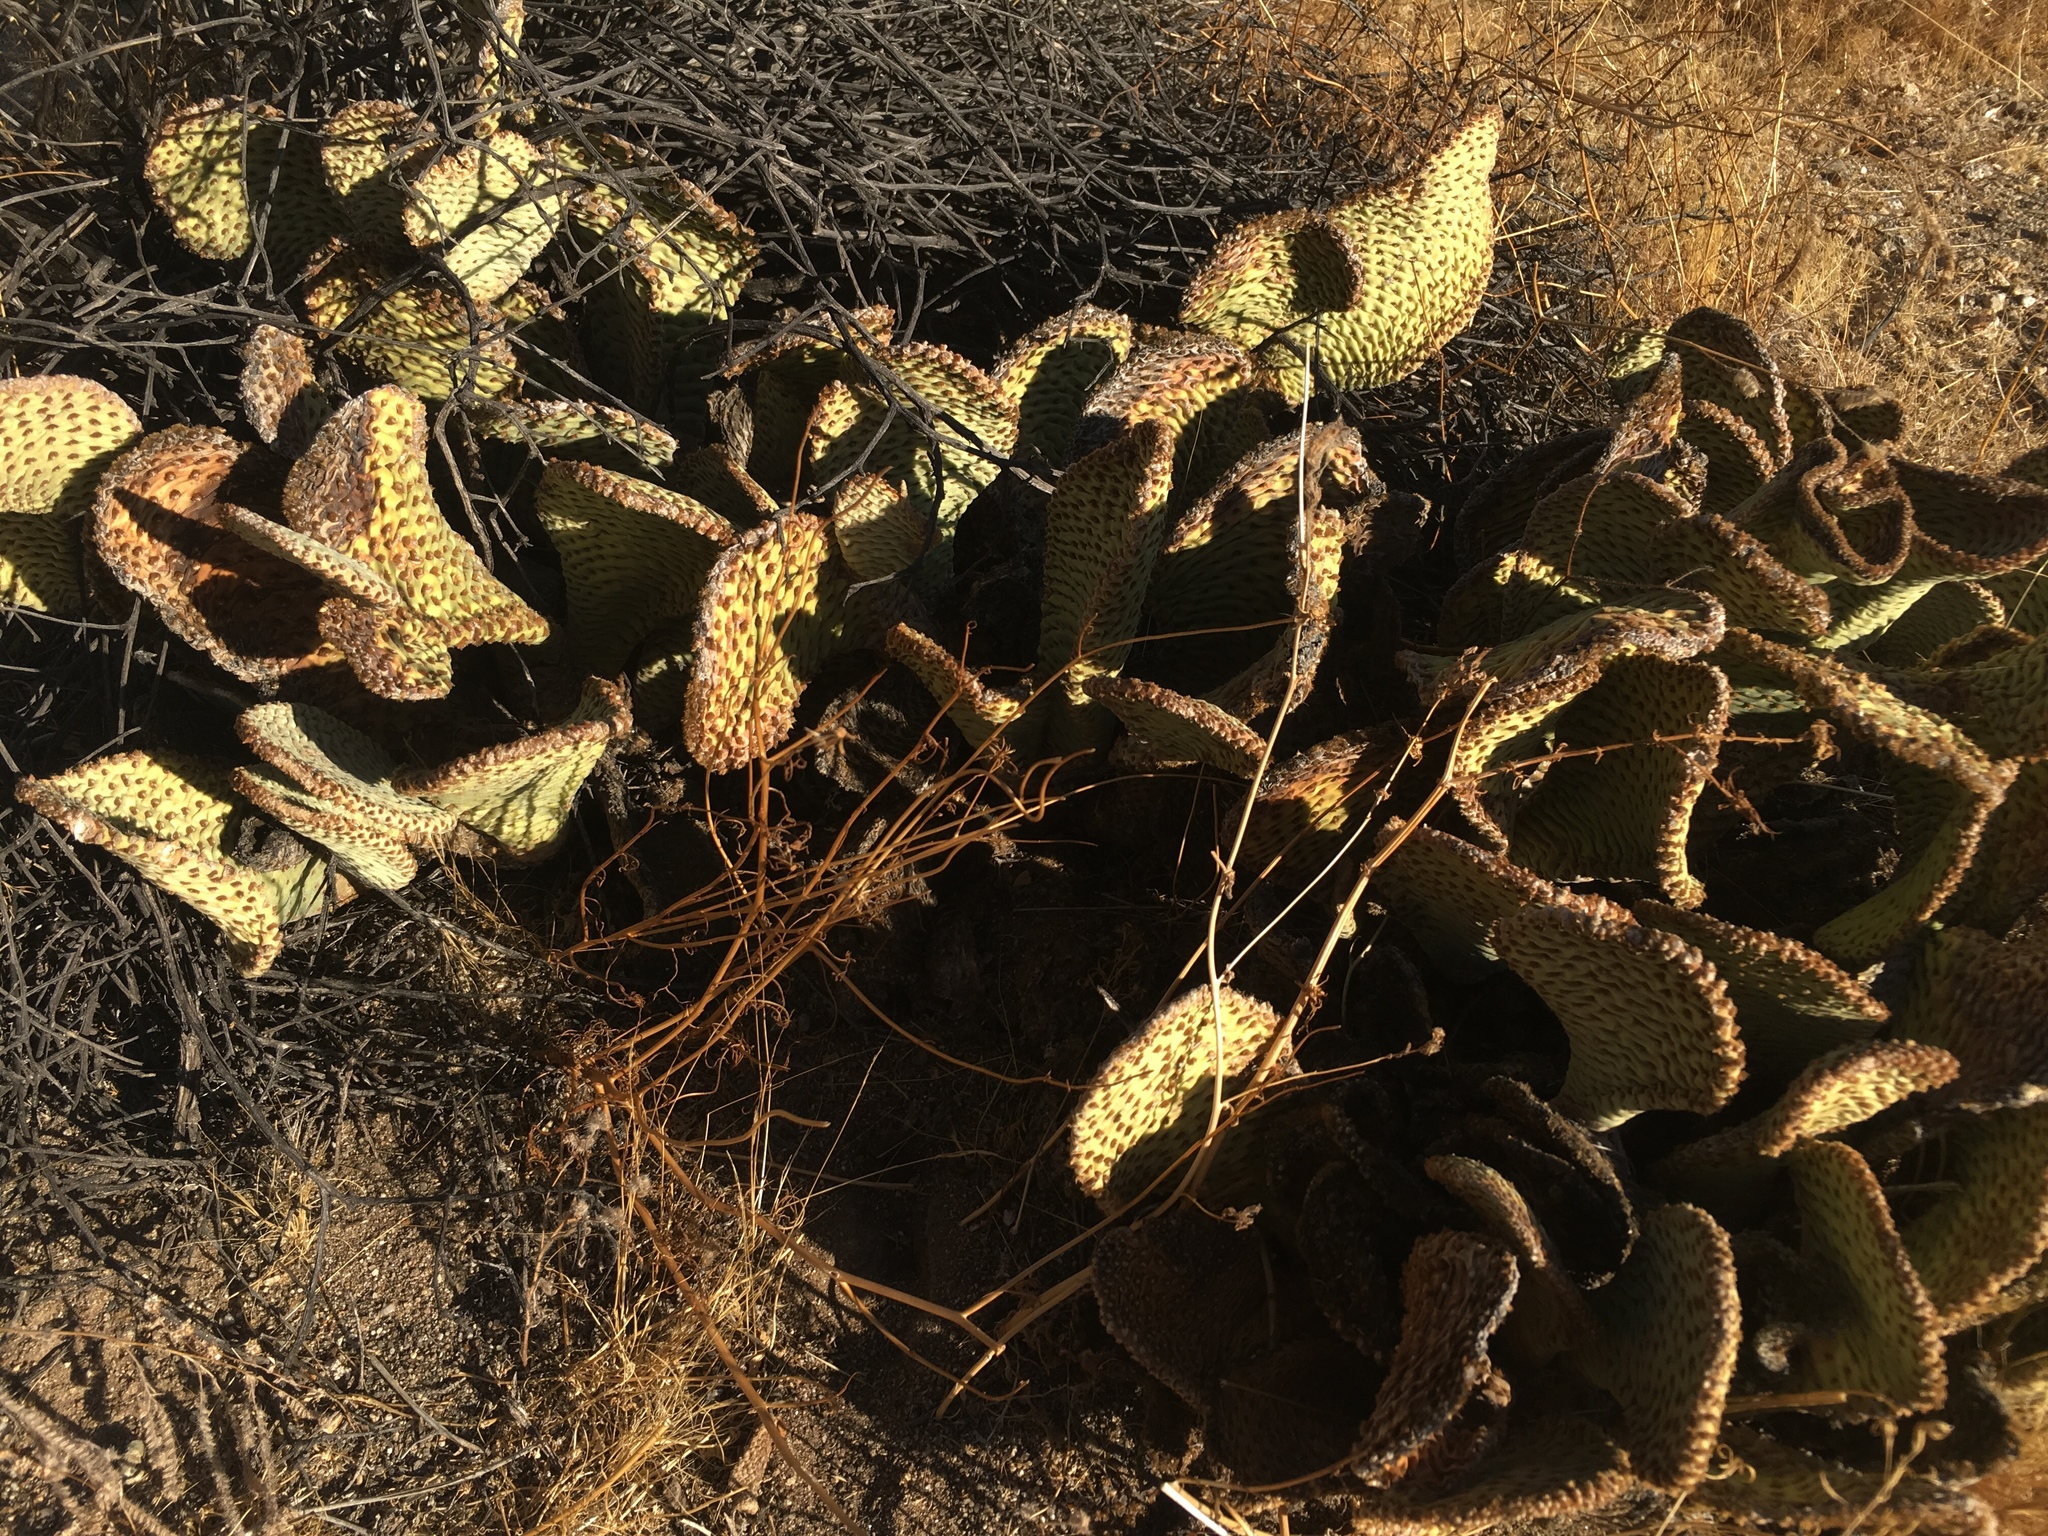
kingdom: Plantae
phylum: Tracheophyta
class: Magnoliopsida
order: Caryophyllales
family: Cactaceae
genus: Opuntia
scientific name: Opuntia basilaris
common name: Beavertail prickly-pear
